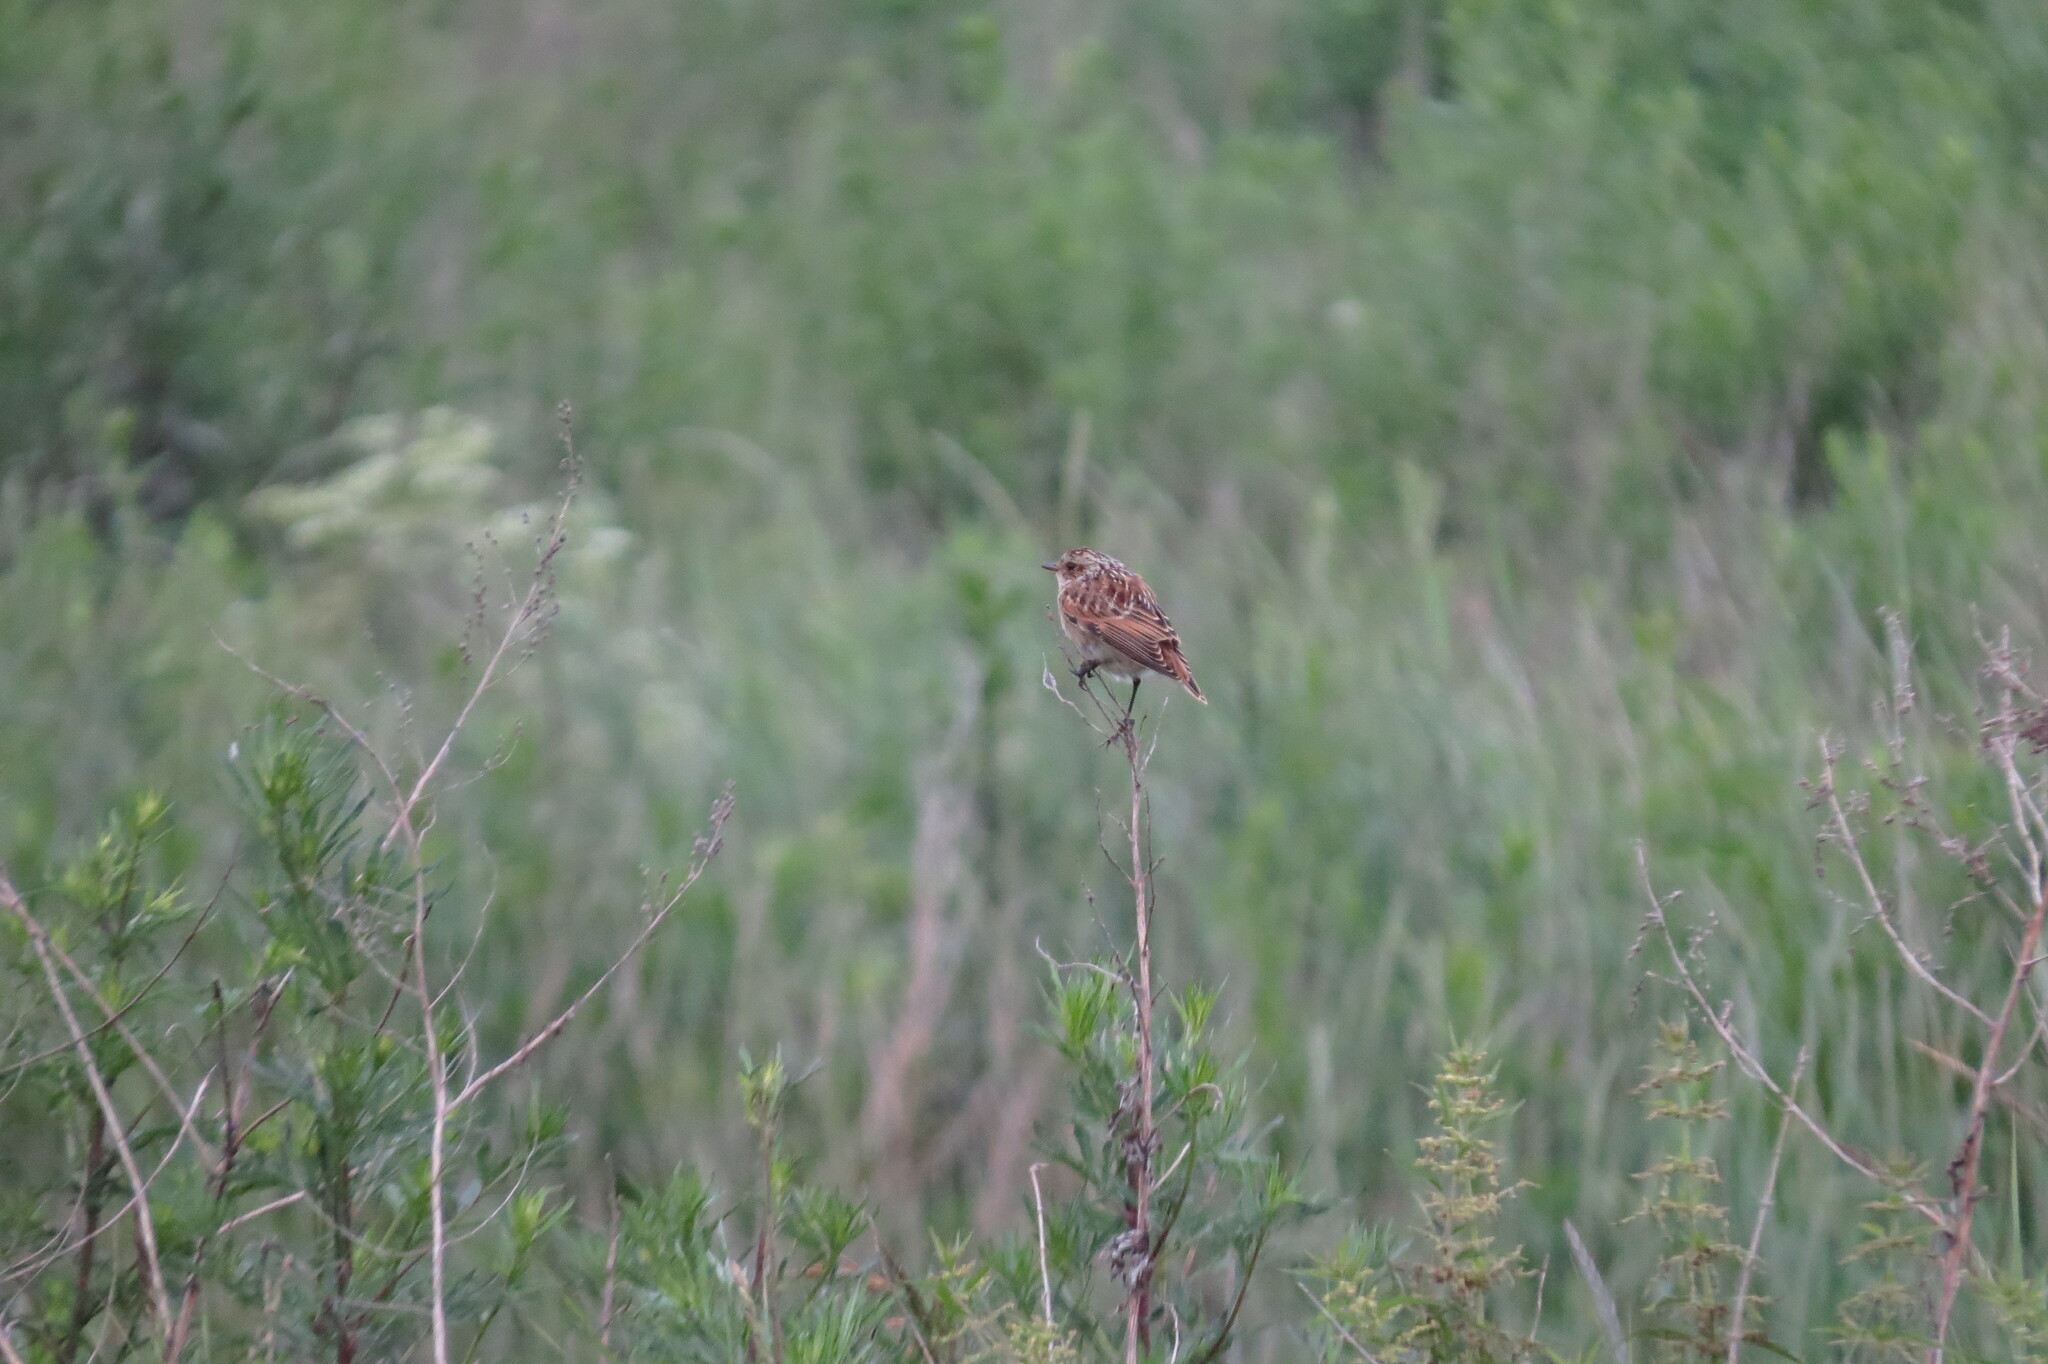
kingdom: Animalia
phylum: Chordata
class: Aves
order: Passeriformes
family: Muscicapidae
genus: Saxicola
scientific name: Saxicola rubetra
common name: Whinchat
